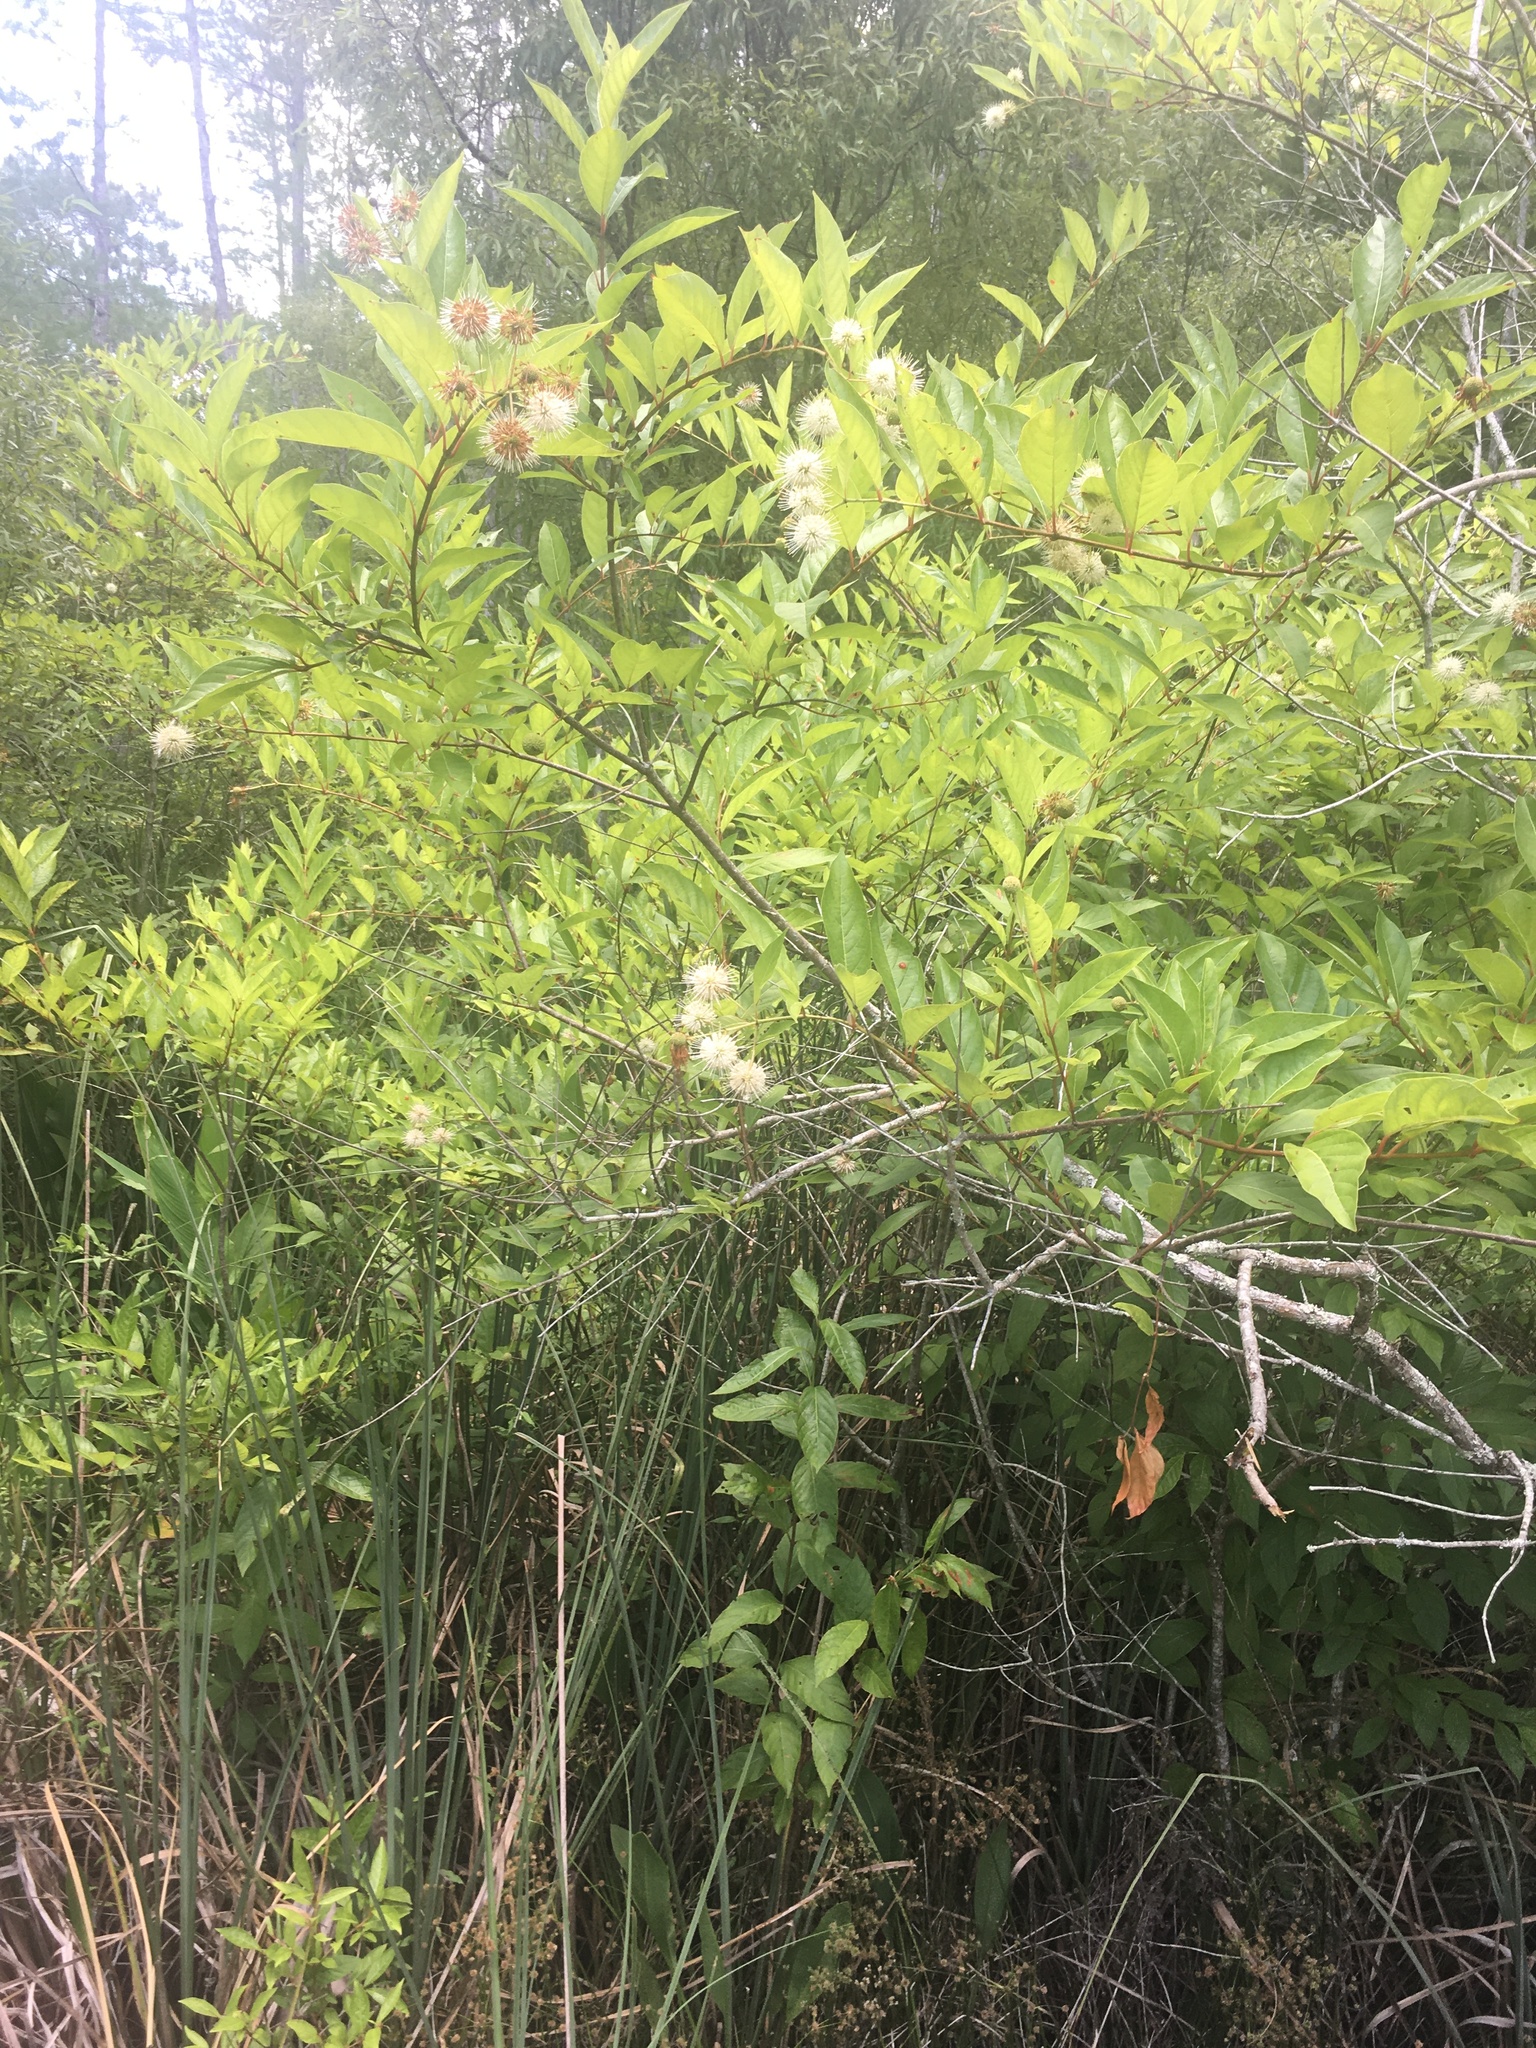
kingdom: Plantae
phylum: Tracheophyta
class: Magnoliopsida
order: Gentianales
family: Rubiaceae
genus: Cephalanthus
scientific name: Cephalanthus occidentalis
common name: Button-willow
